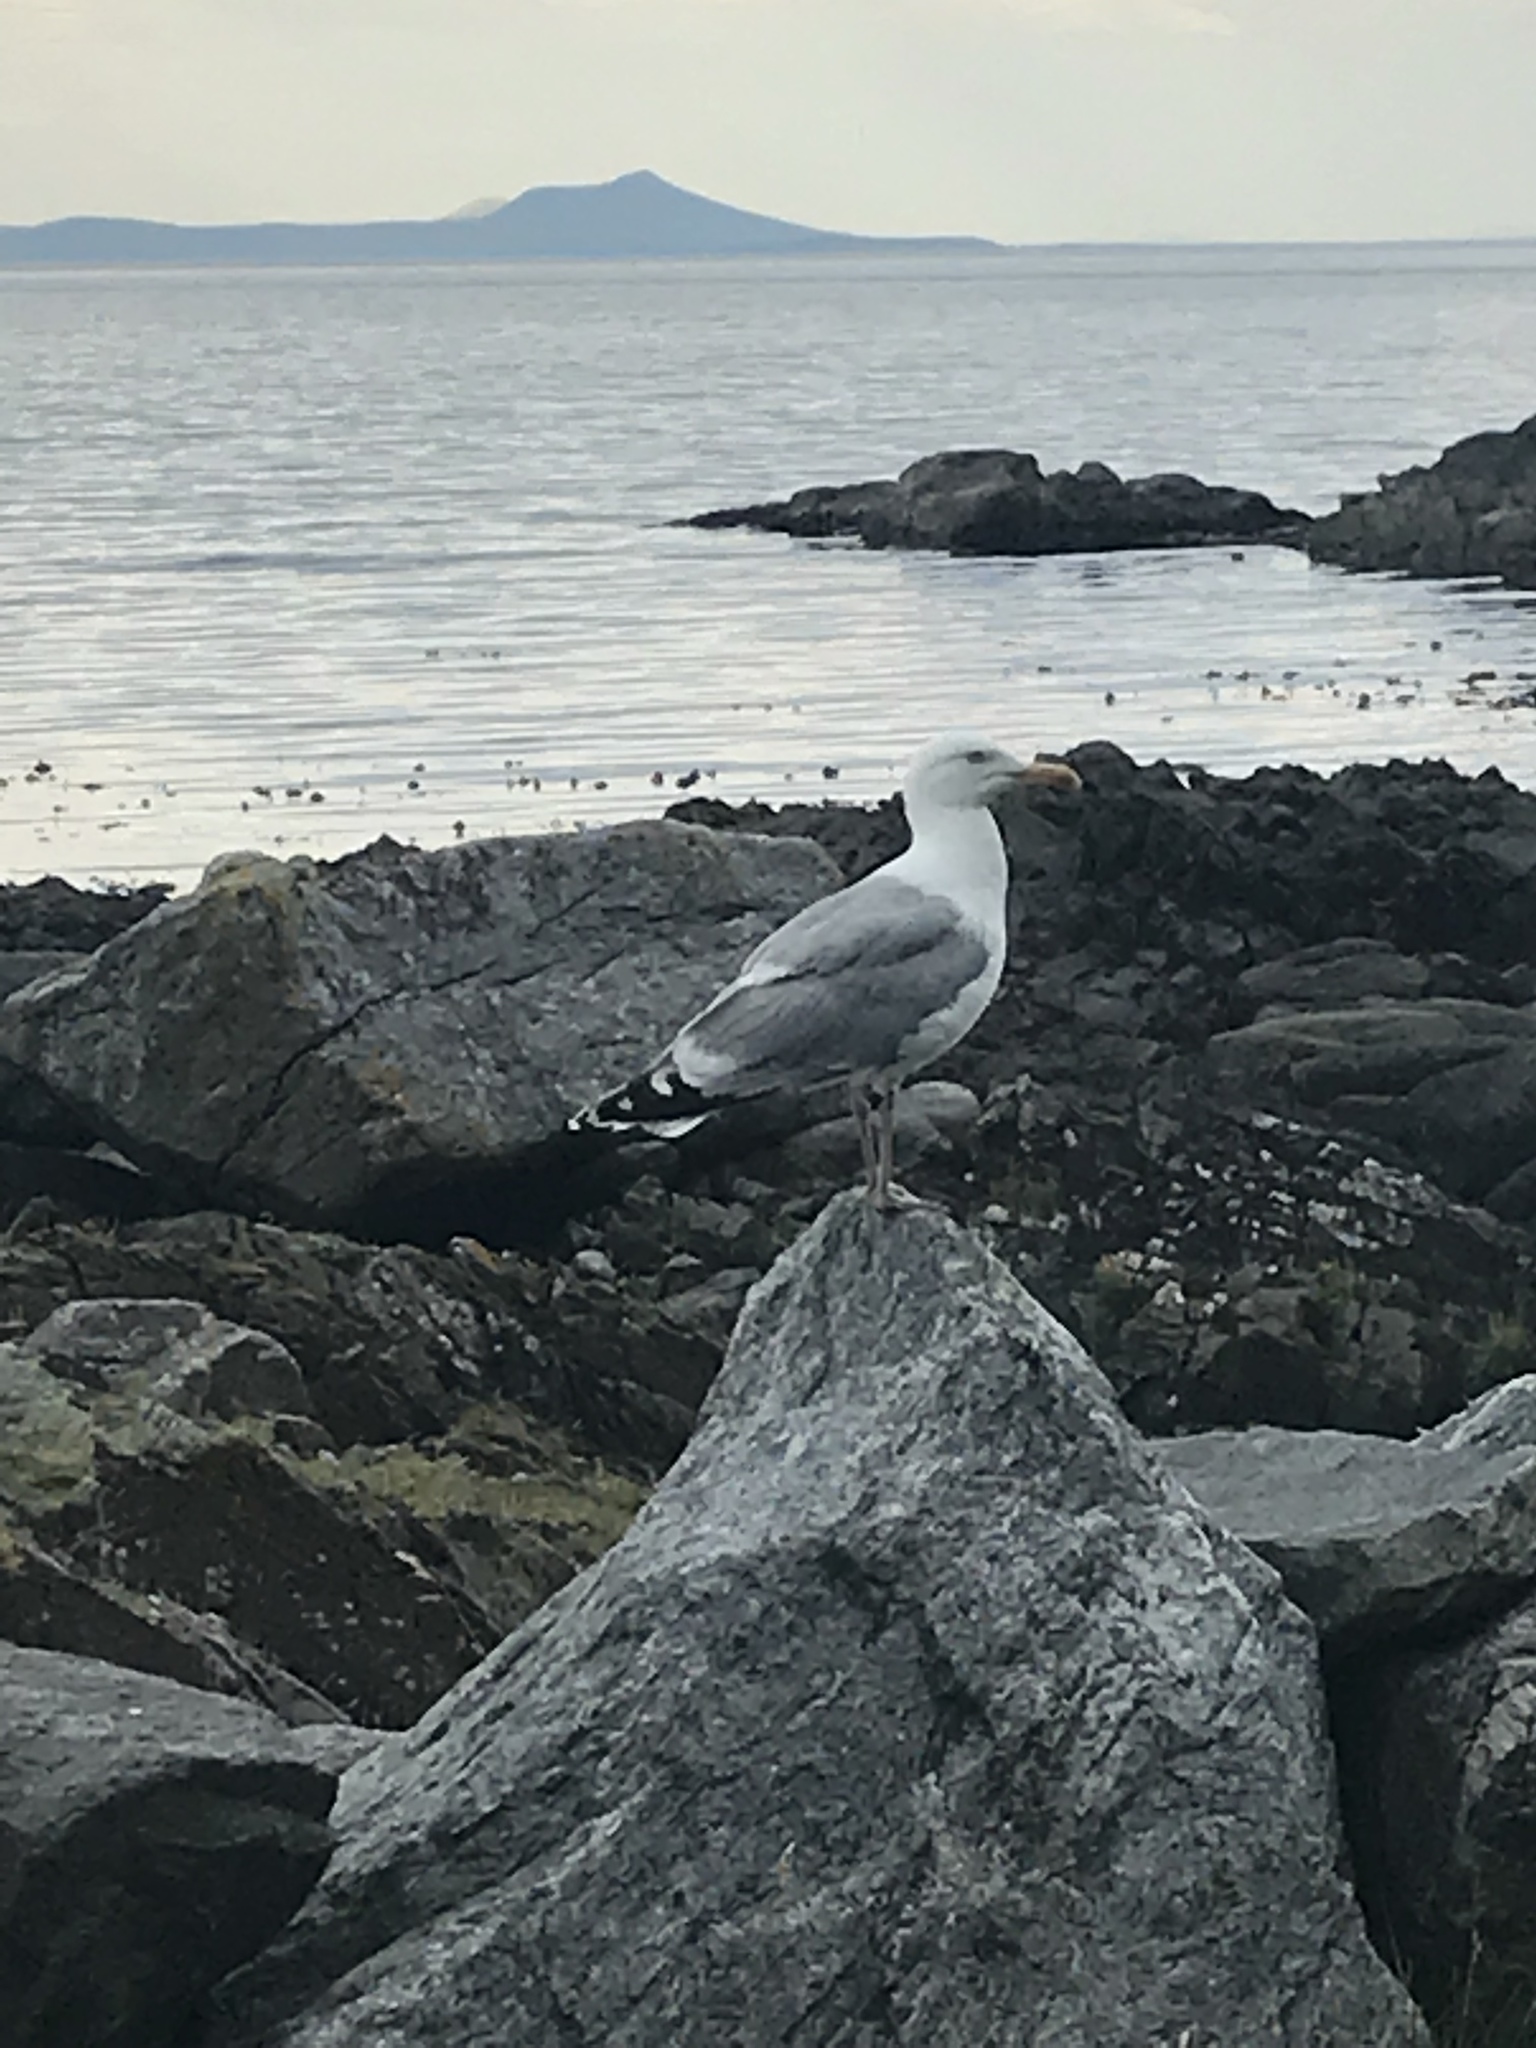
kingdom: Animalia
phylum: Chordata
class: Aves
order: Charadriiformes
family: Laridae
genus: Larus
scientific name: Larus argentatus
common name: Herring gull
